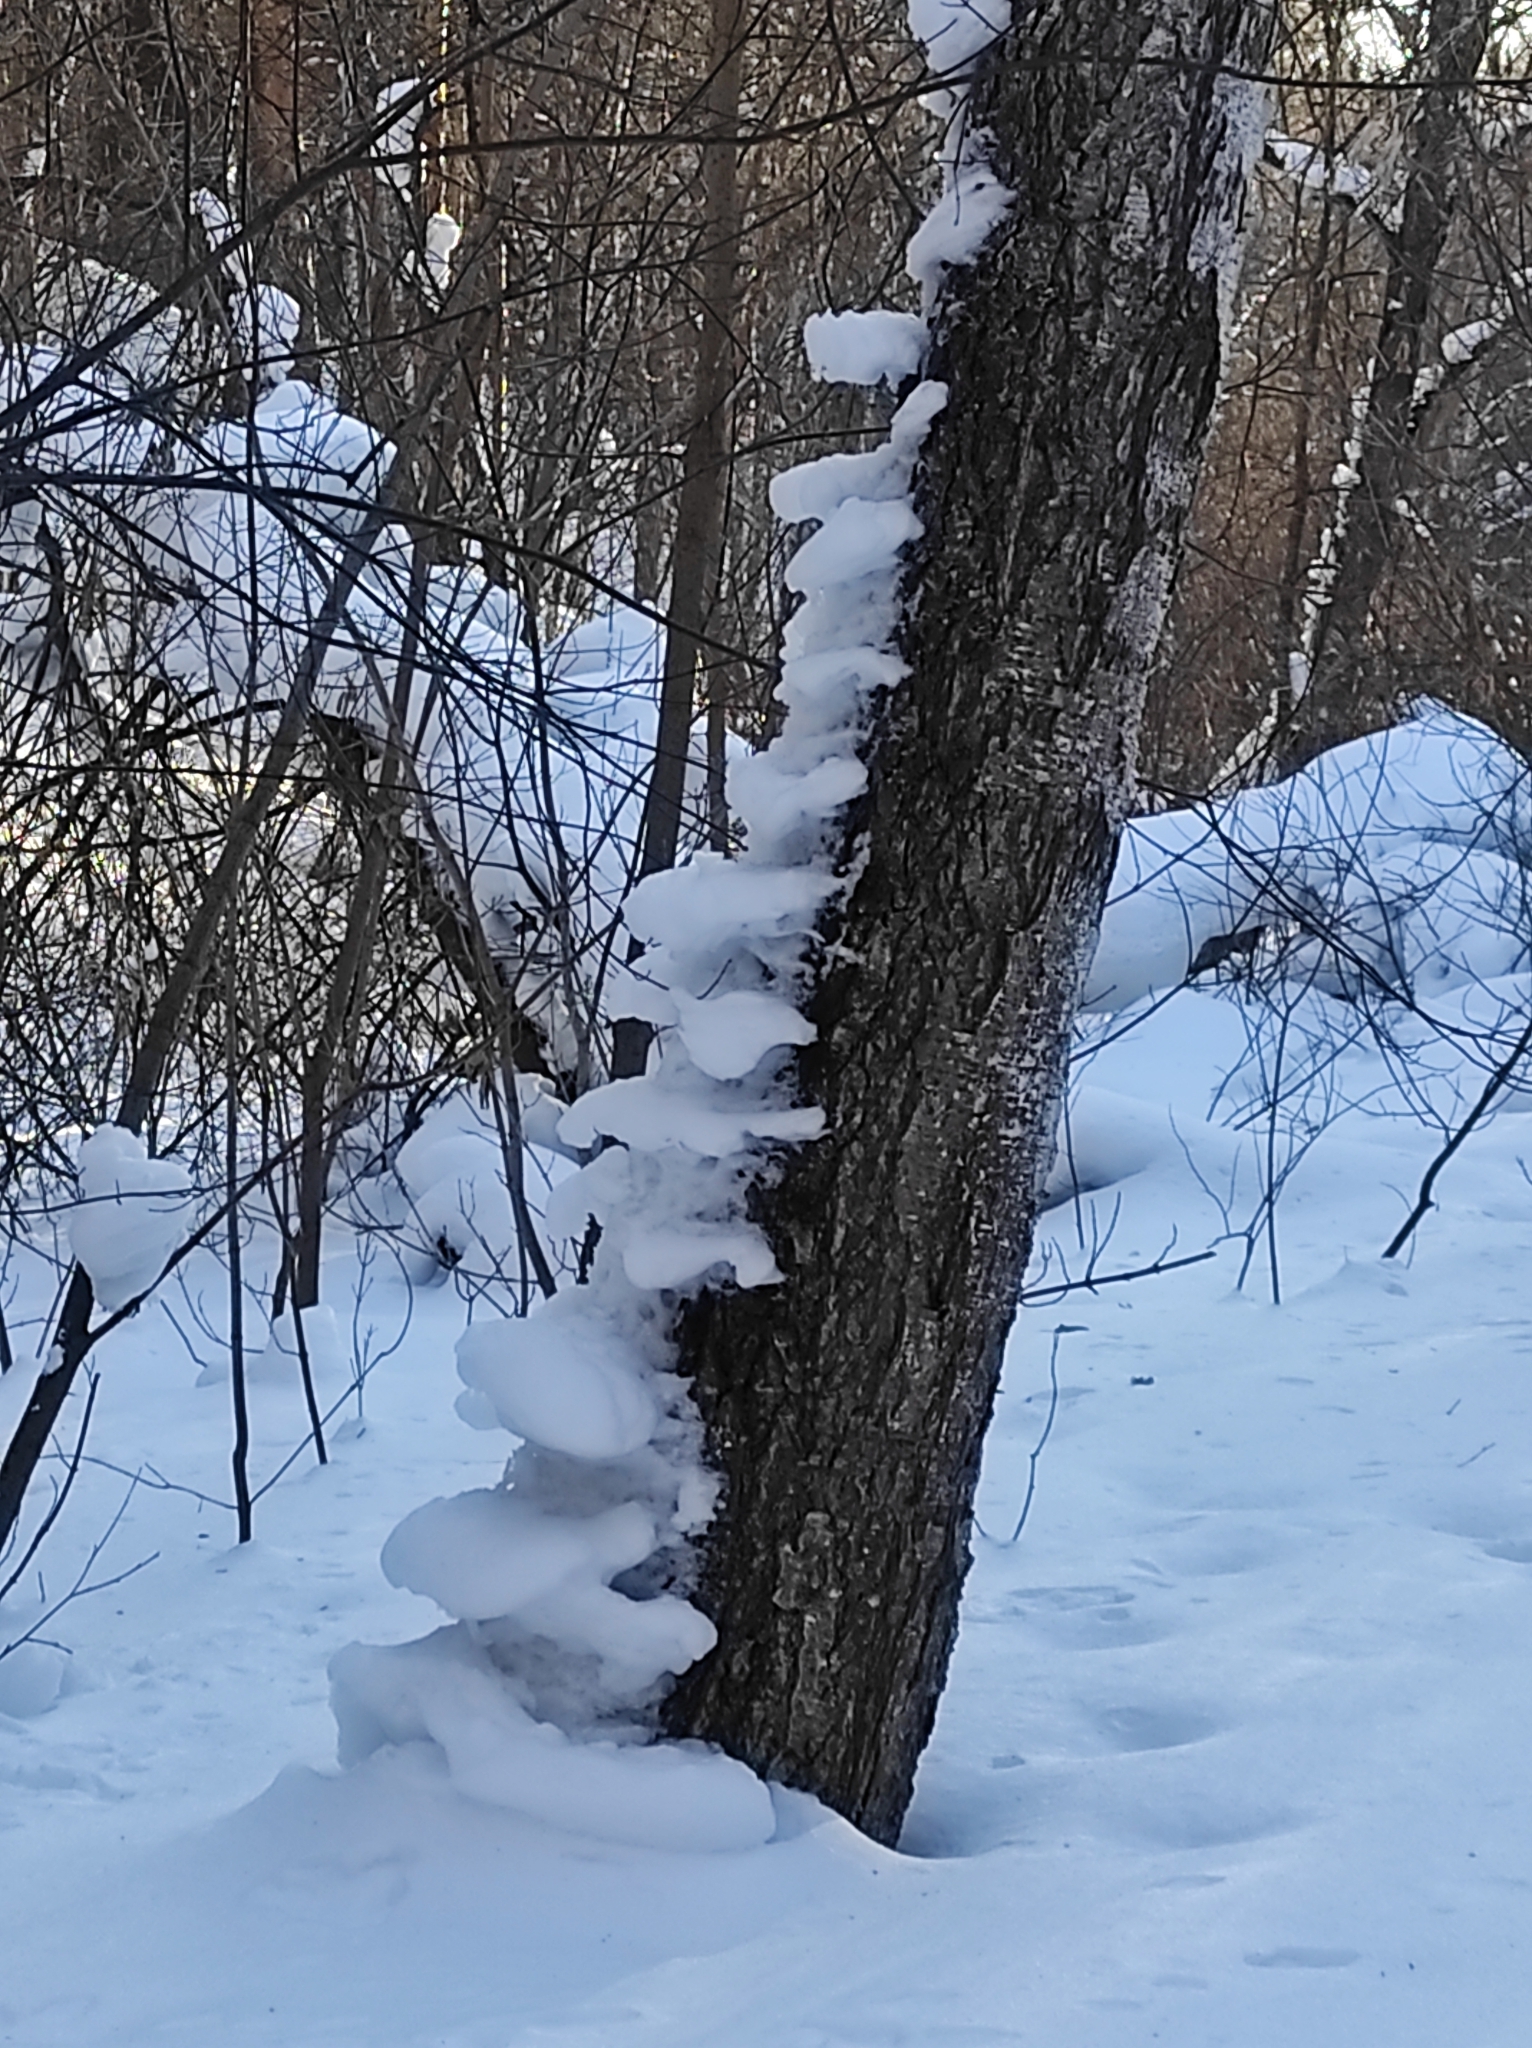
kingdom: Plantae
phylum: Tracheophyta
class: Magnoliopsida
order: Fagales
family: Betulaceae
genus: Betula
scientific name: Betula pendula
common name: Silver birch
